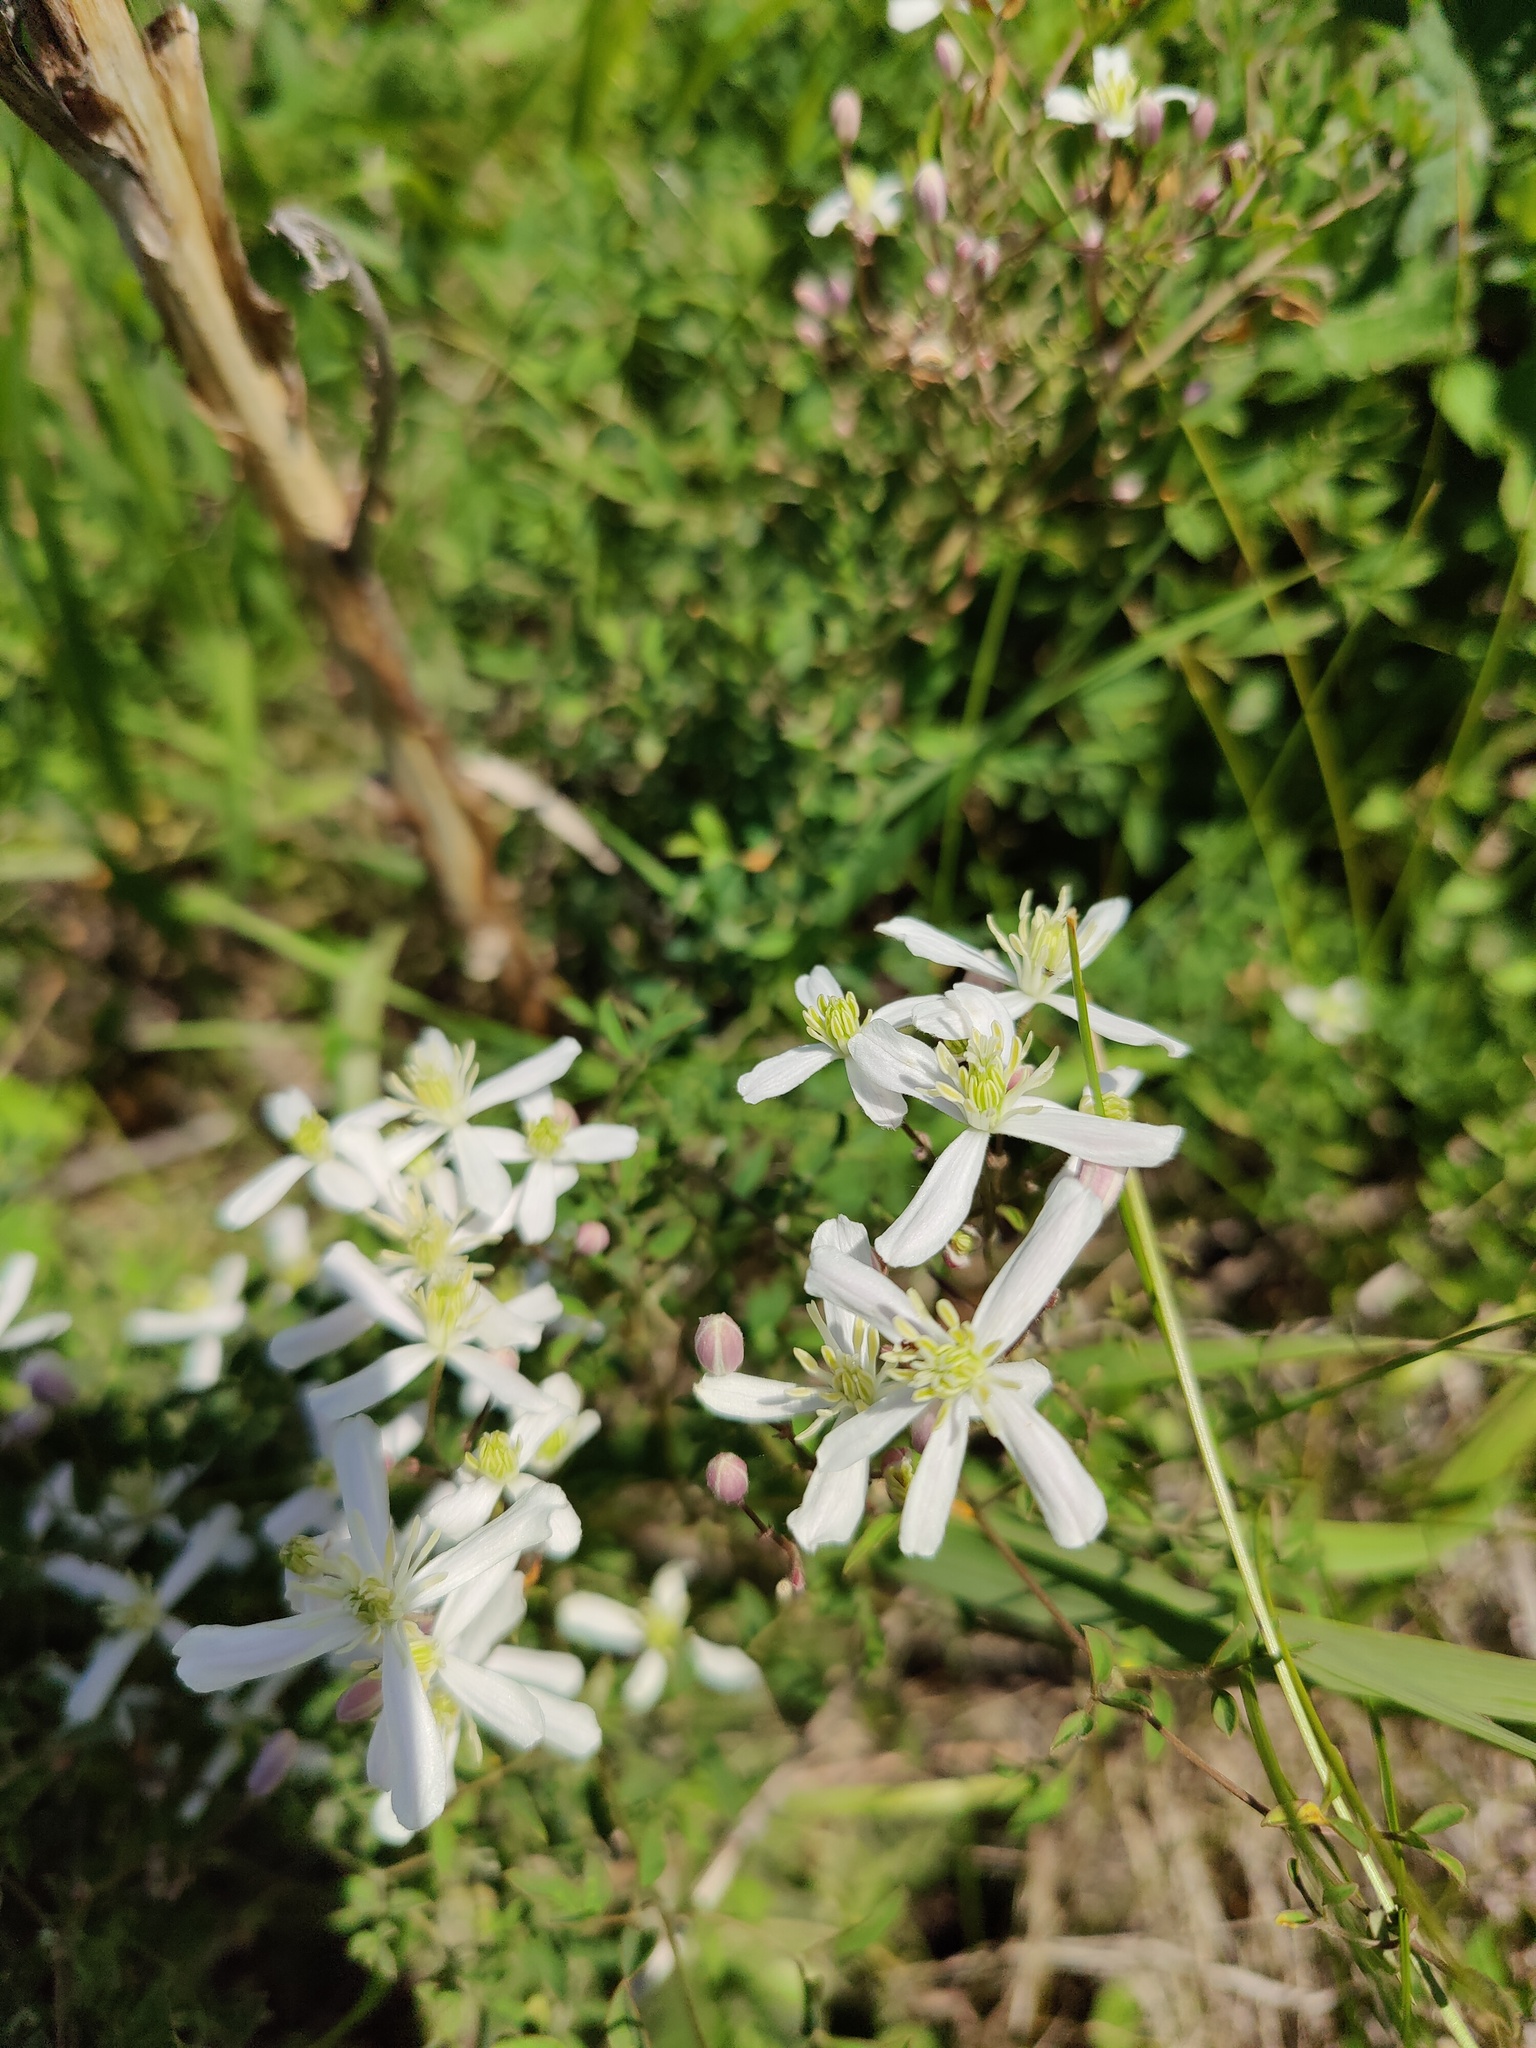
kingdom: Plantae
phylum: Tracheophyta
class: Magnoliopsida
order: Ranunculales
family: Ranunculaceae
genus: Clematis
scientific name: Clematis lathyrifolia
